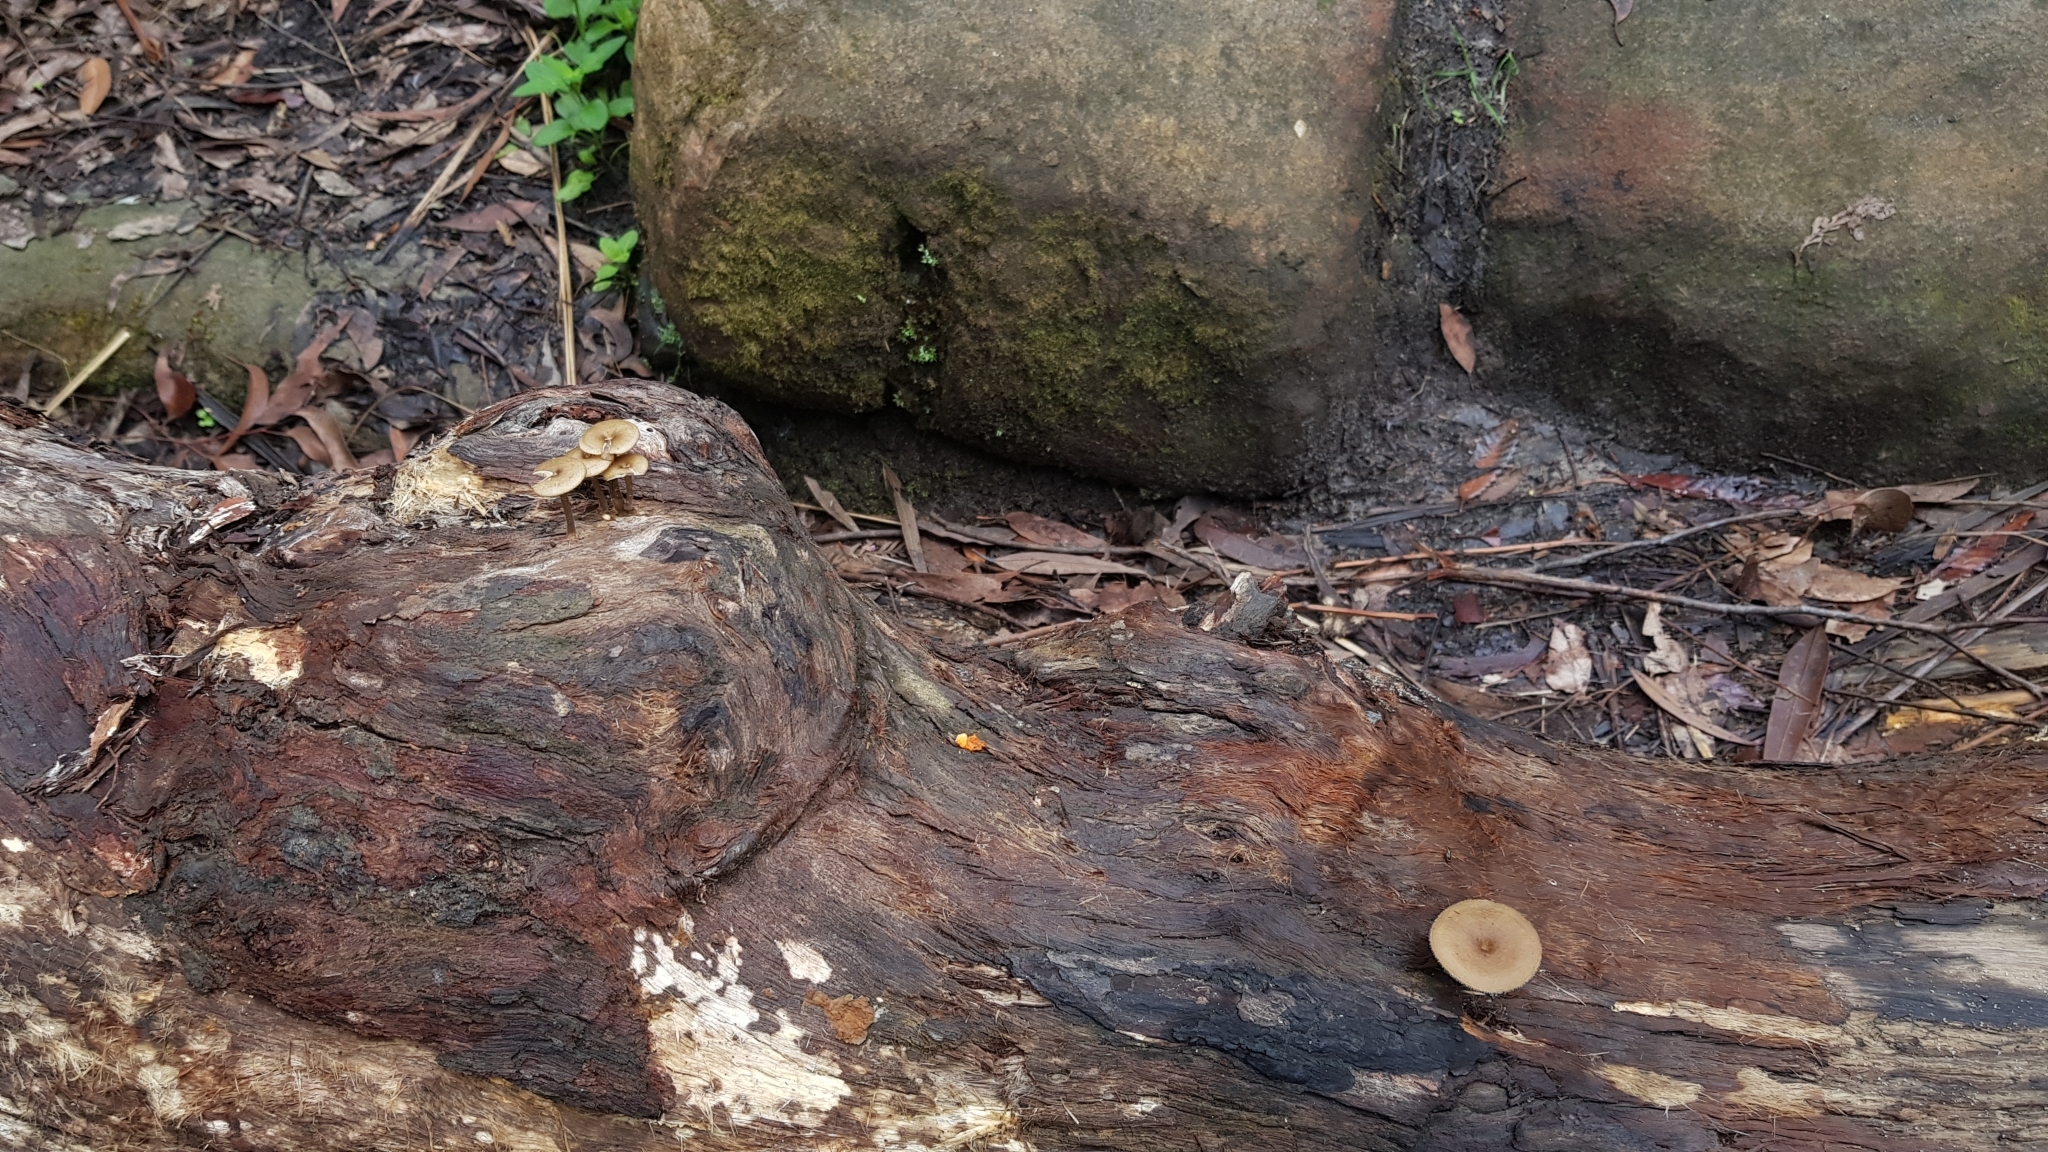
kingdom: Fungi
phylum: Basidiomycota
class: Agaricomycetes
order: Polyporales
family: Polyporaceae
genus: Lentinus
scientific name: Lentinus arcularius
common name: Spring polypore
